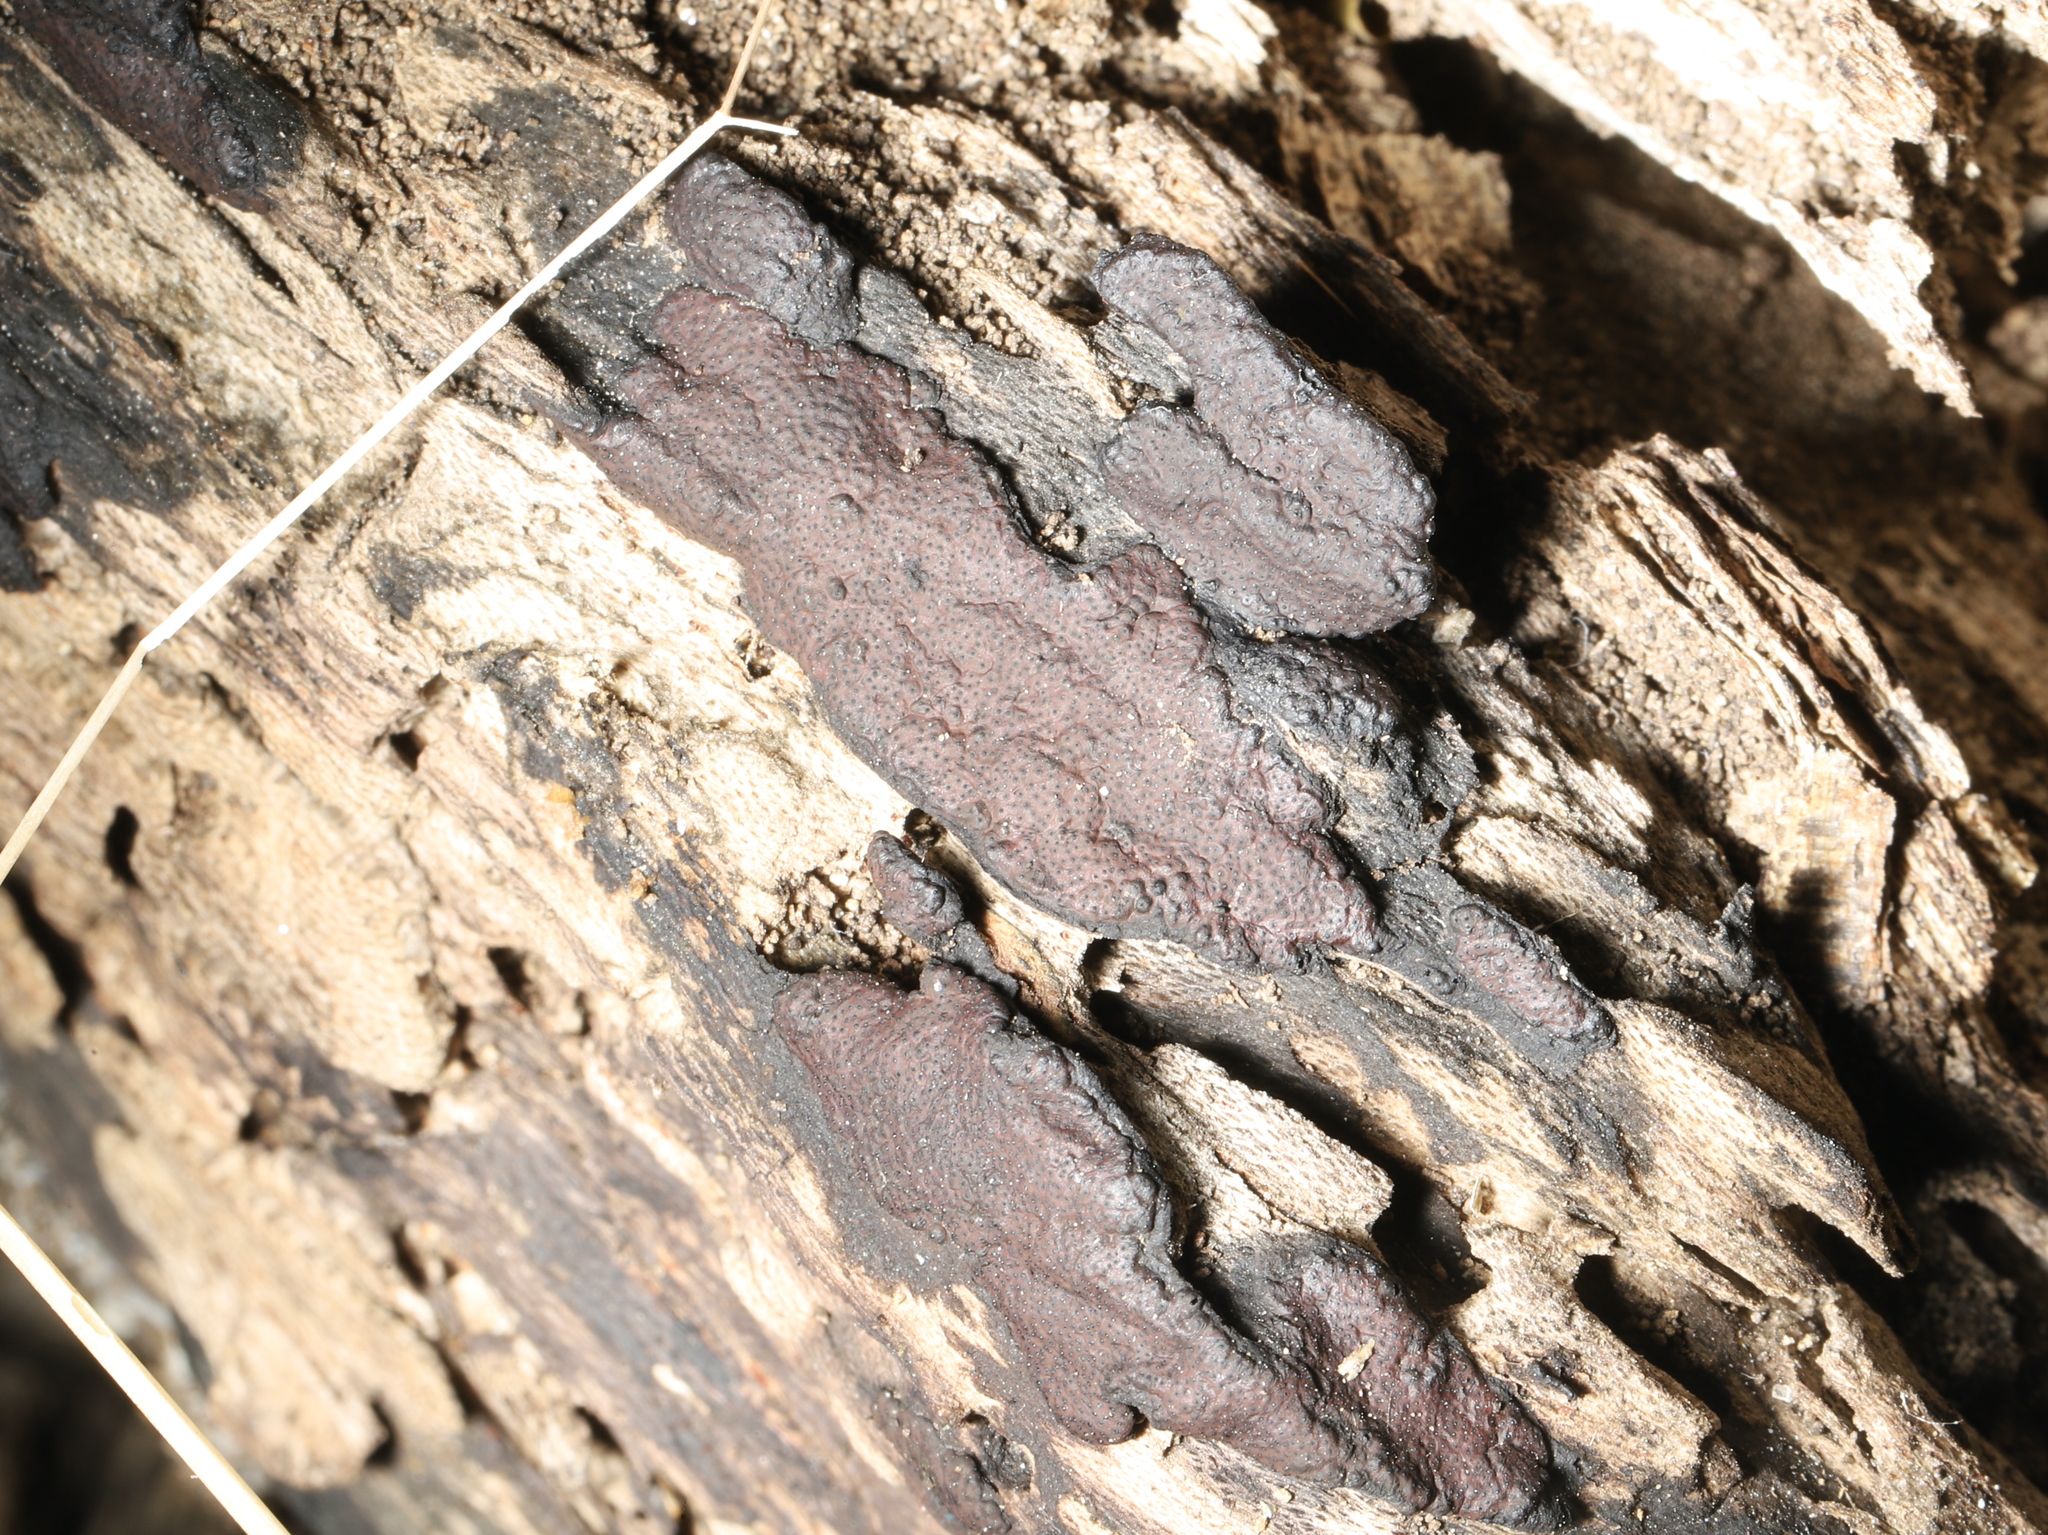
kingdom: Fungi
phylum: Ascomycota
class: Sordariomycetes
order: Xylariales
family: Hypoxylaceae
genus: Hypomontagnella
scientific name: Hypomontagnella submonticulosa
